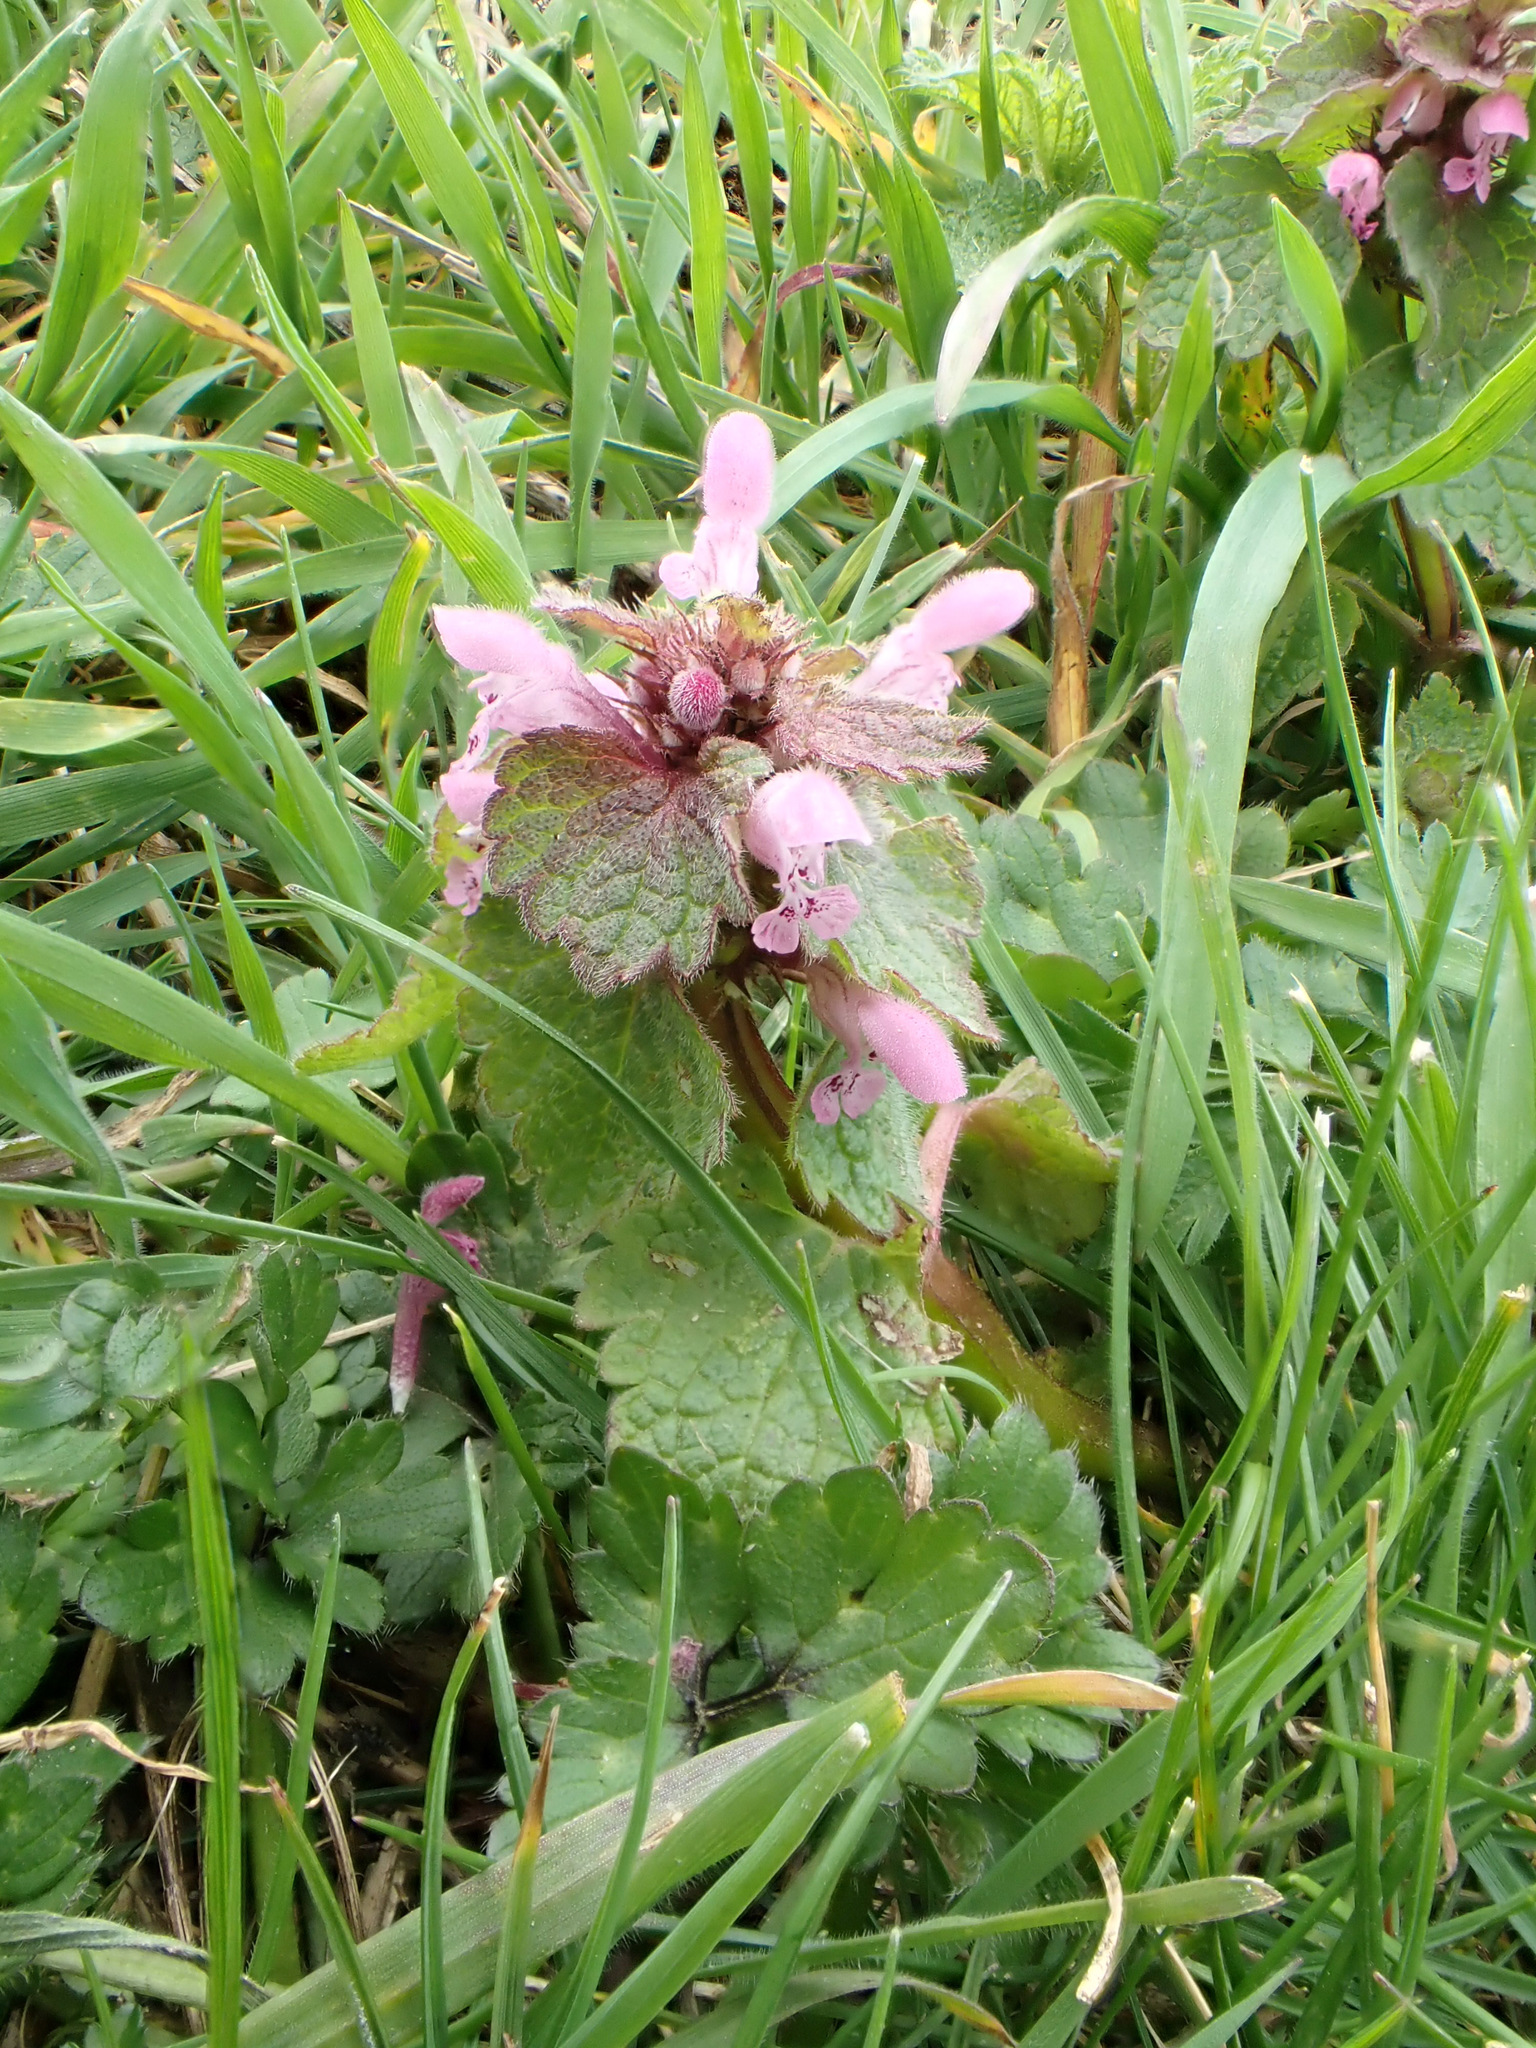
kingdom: Plantae
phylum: Tracheophyta
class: Magnoliopsida
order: Lamiales
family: Lamiaceae
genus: Lamium
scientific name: Lamium purpureum
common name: Red dead-nettle
